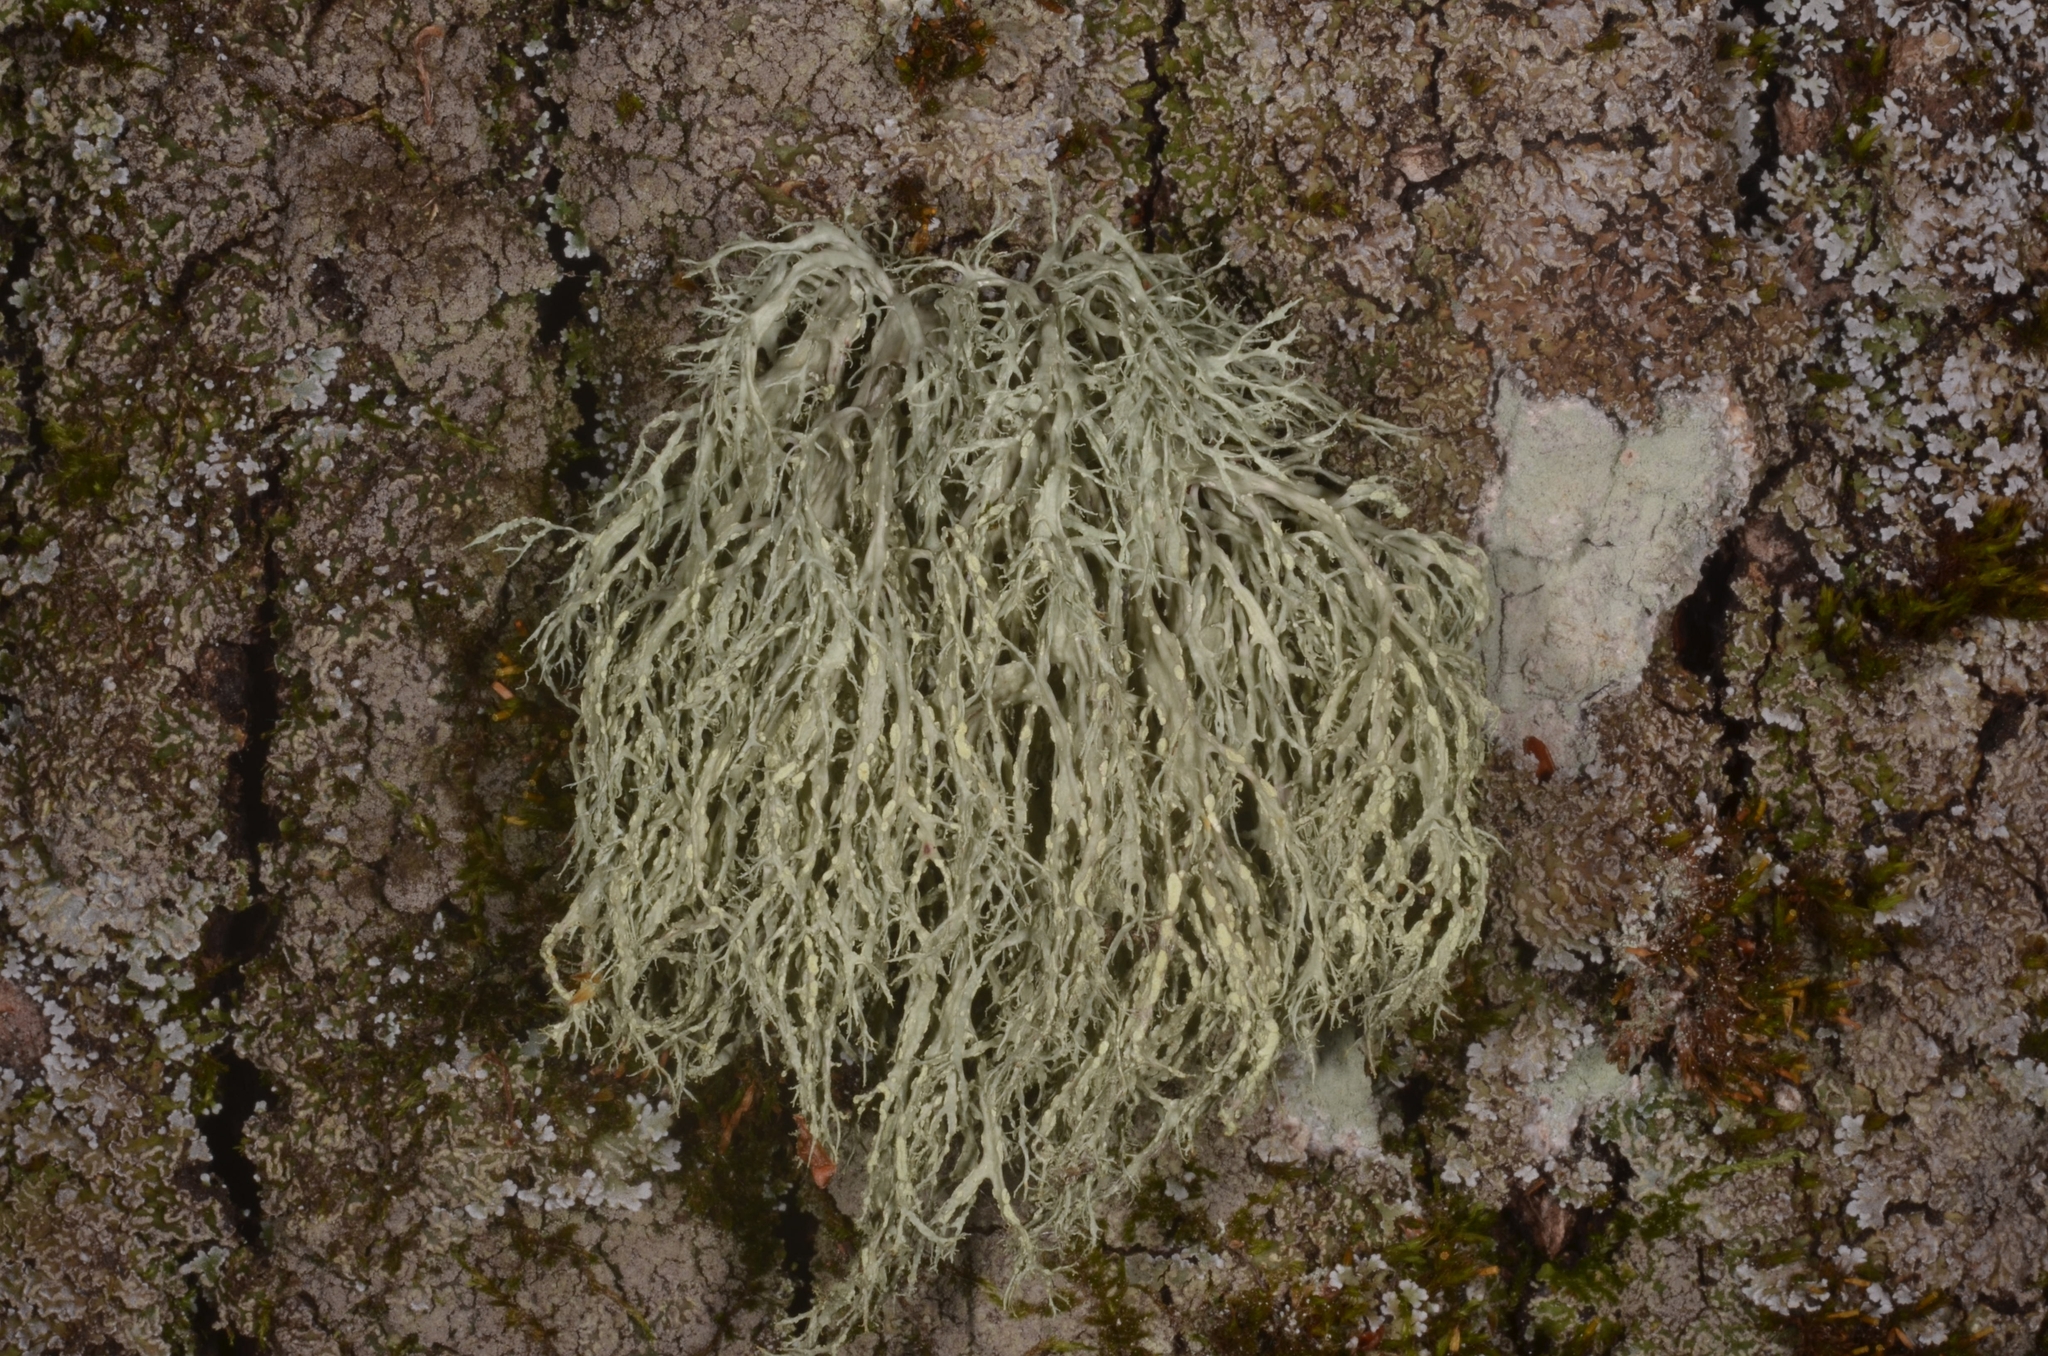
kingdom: Fungi
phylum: Ascomycota
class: Lecanoromycetes
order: Lecanorales
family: Ramalinaceae
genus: Ramalina
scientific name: Ramalina farinacea
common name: Farinose cartilage lichen
